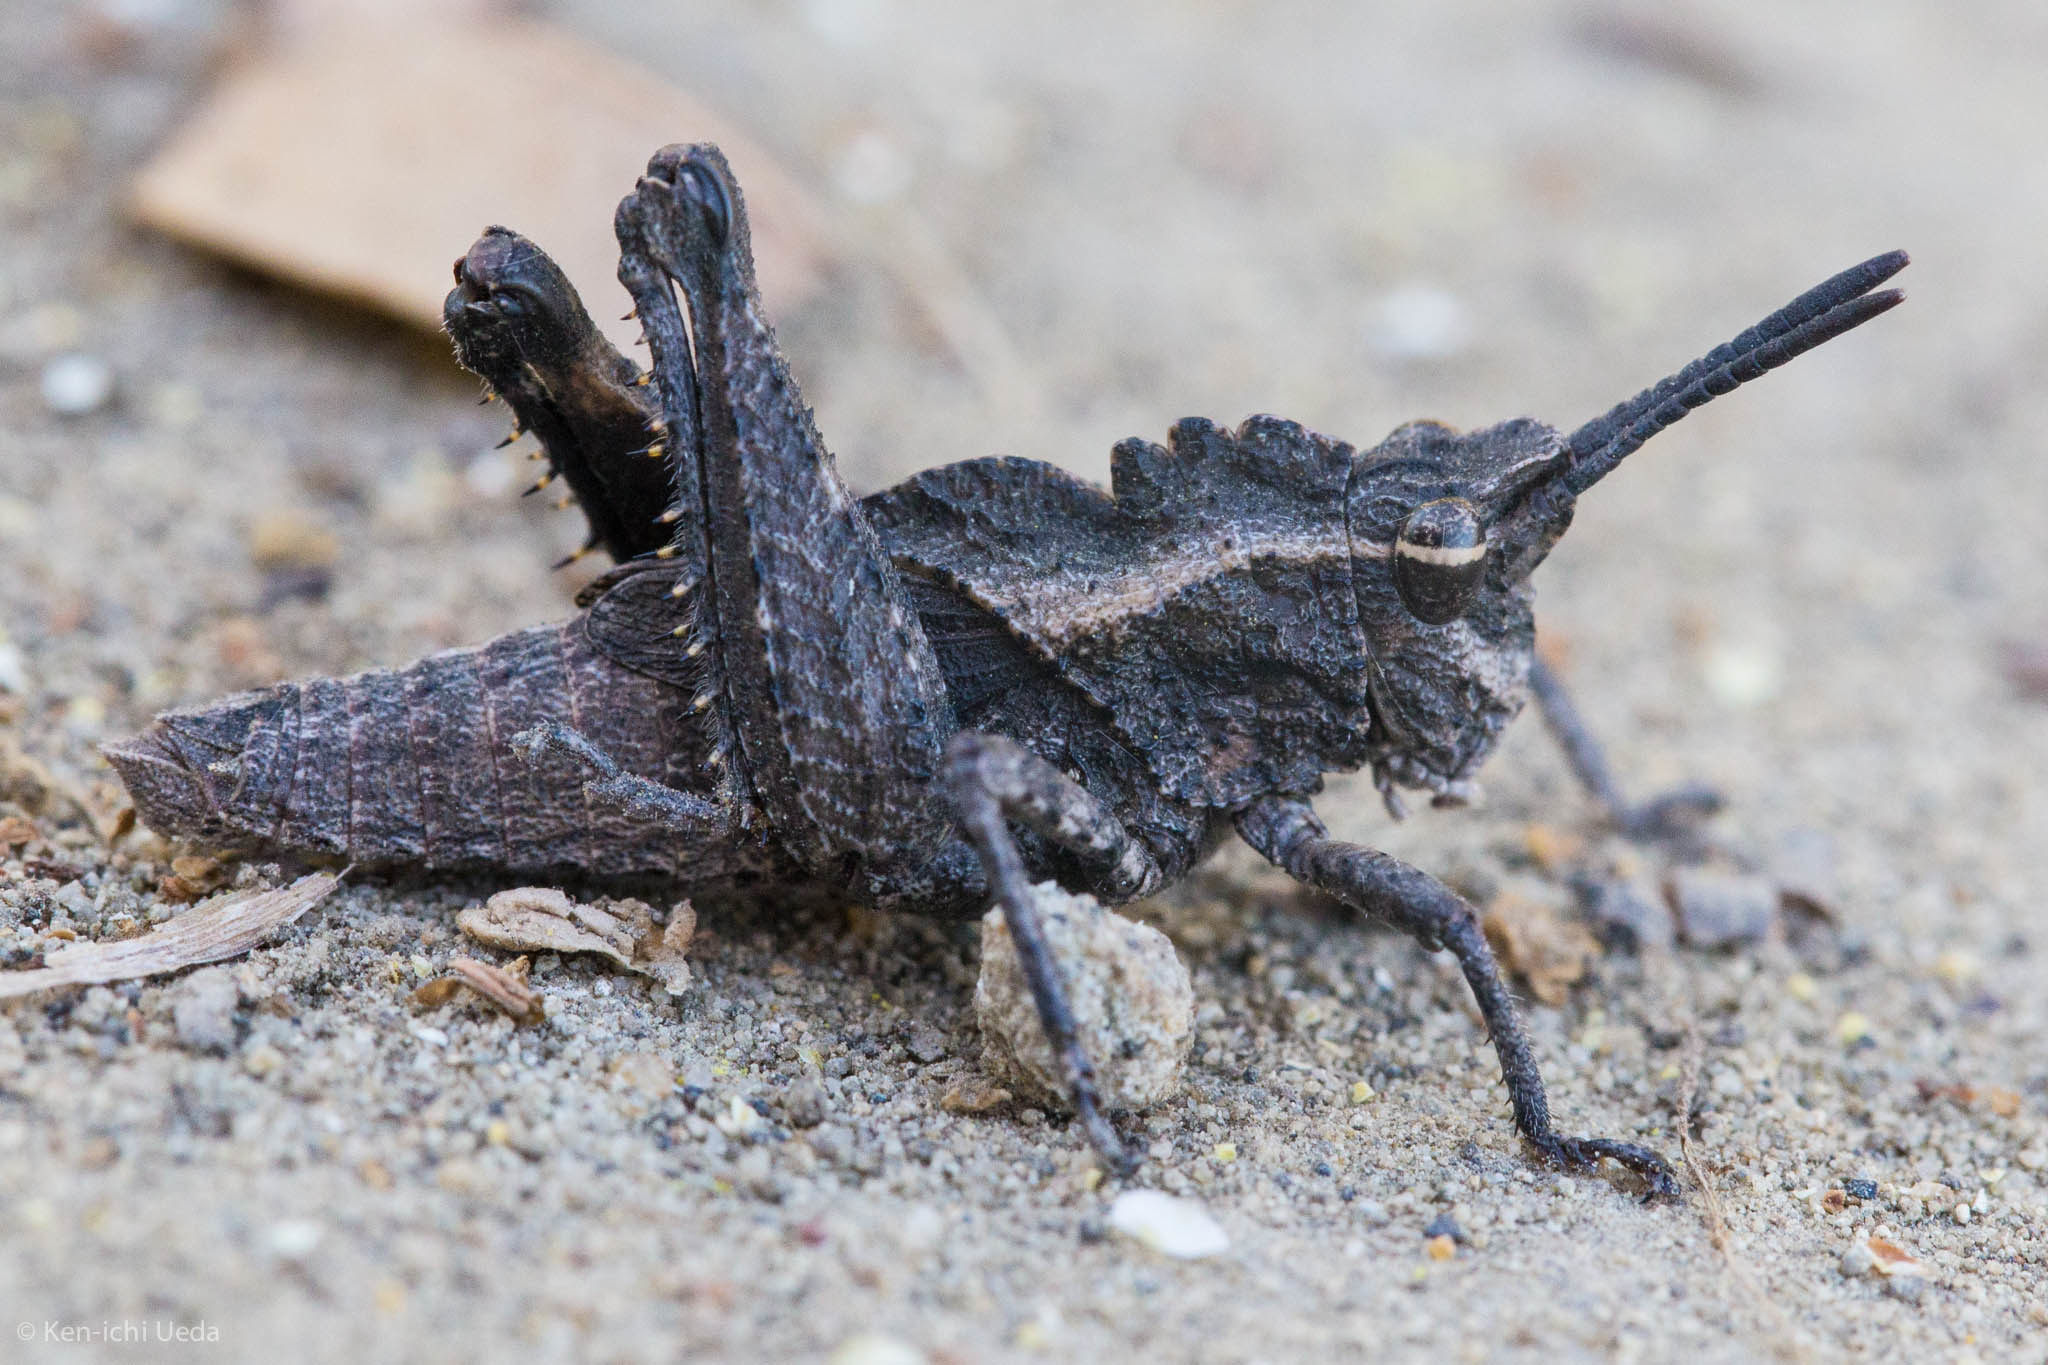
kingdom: Animalia
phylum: Arthropoda
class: Insecta
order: Orthoptera
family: Romaleidae
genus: Dracotettix
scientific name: Dracotettix monstrosus
